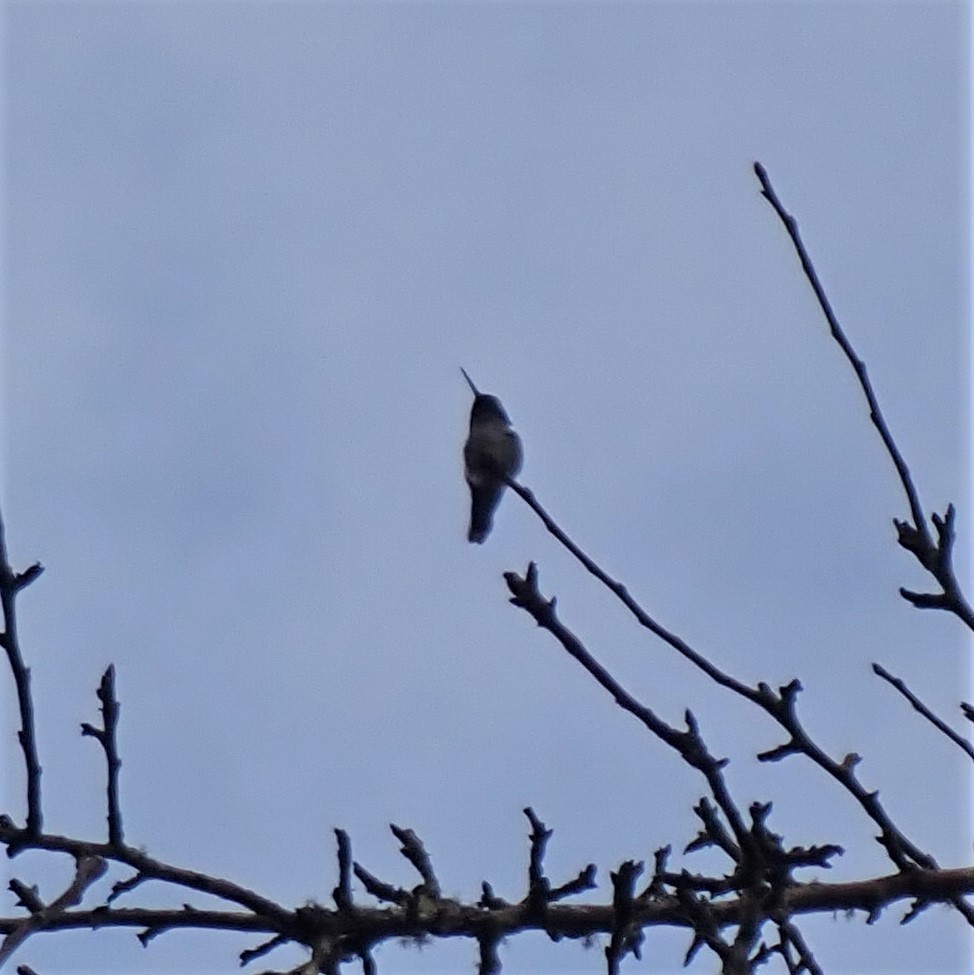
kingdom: Animalia
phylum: Chordata
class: Aves
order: Apodiformes
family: Trochilidae
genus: Calypte
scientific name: Calypte anna
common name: Anna's hummingbird
